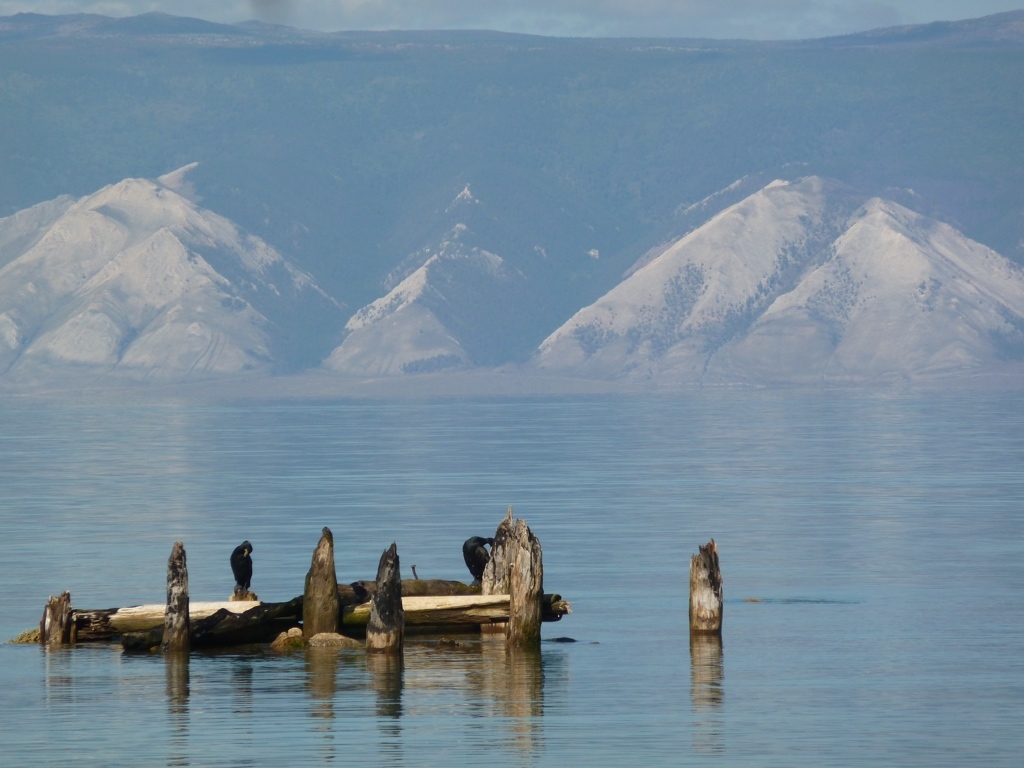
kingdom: Animalia
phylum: Chordata
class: Aves
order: Suliformes
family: Phalacrocoracidae
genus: Phalacrocorax
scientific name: Phalacrocorax carbo
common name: Great cormorant
